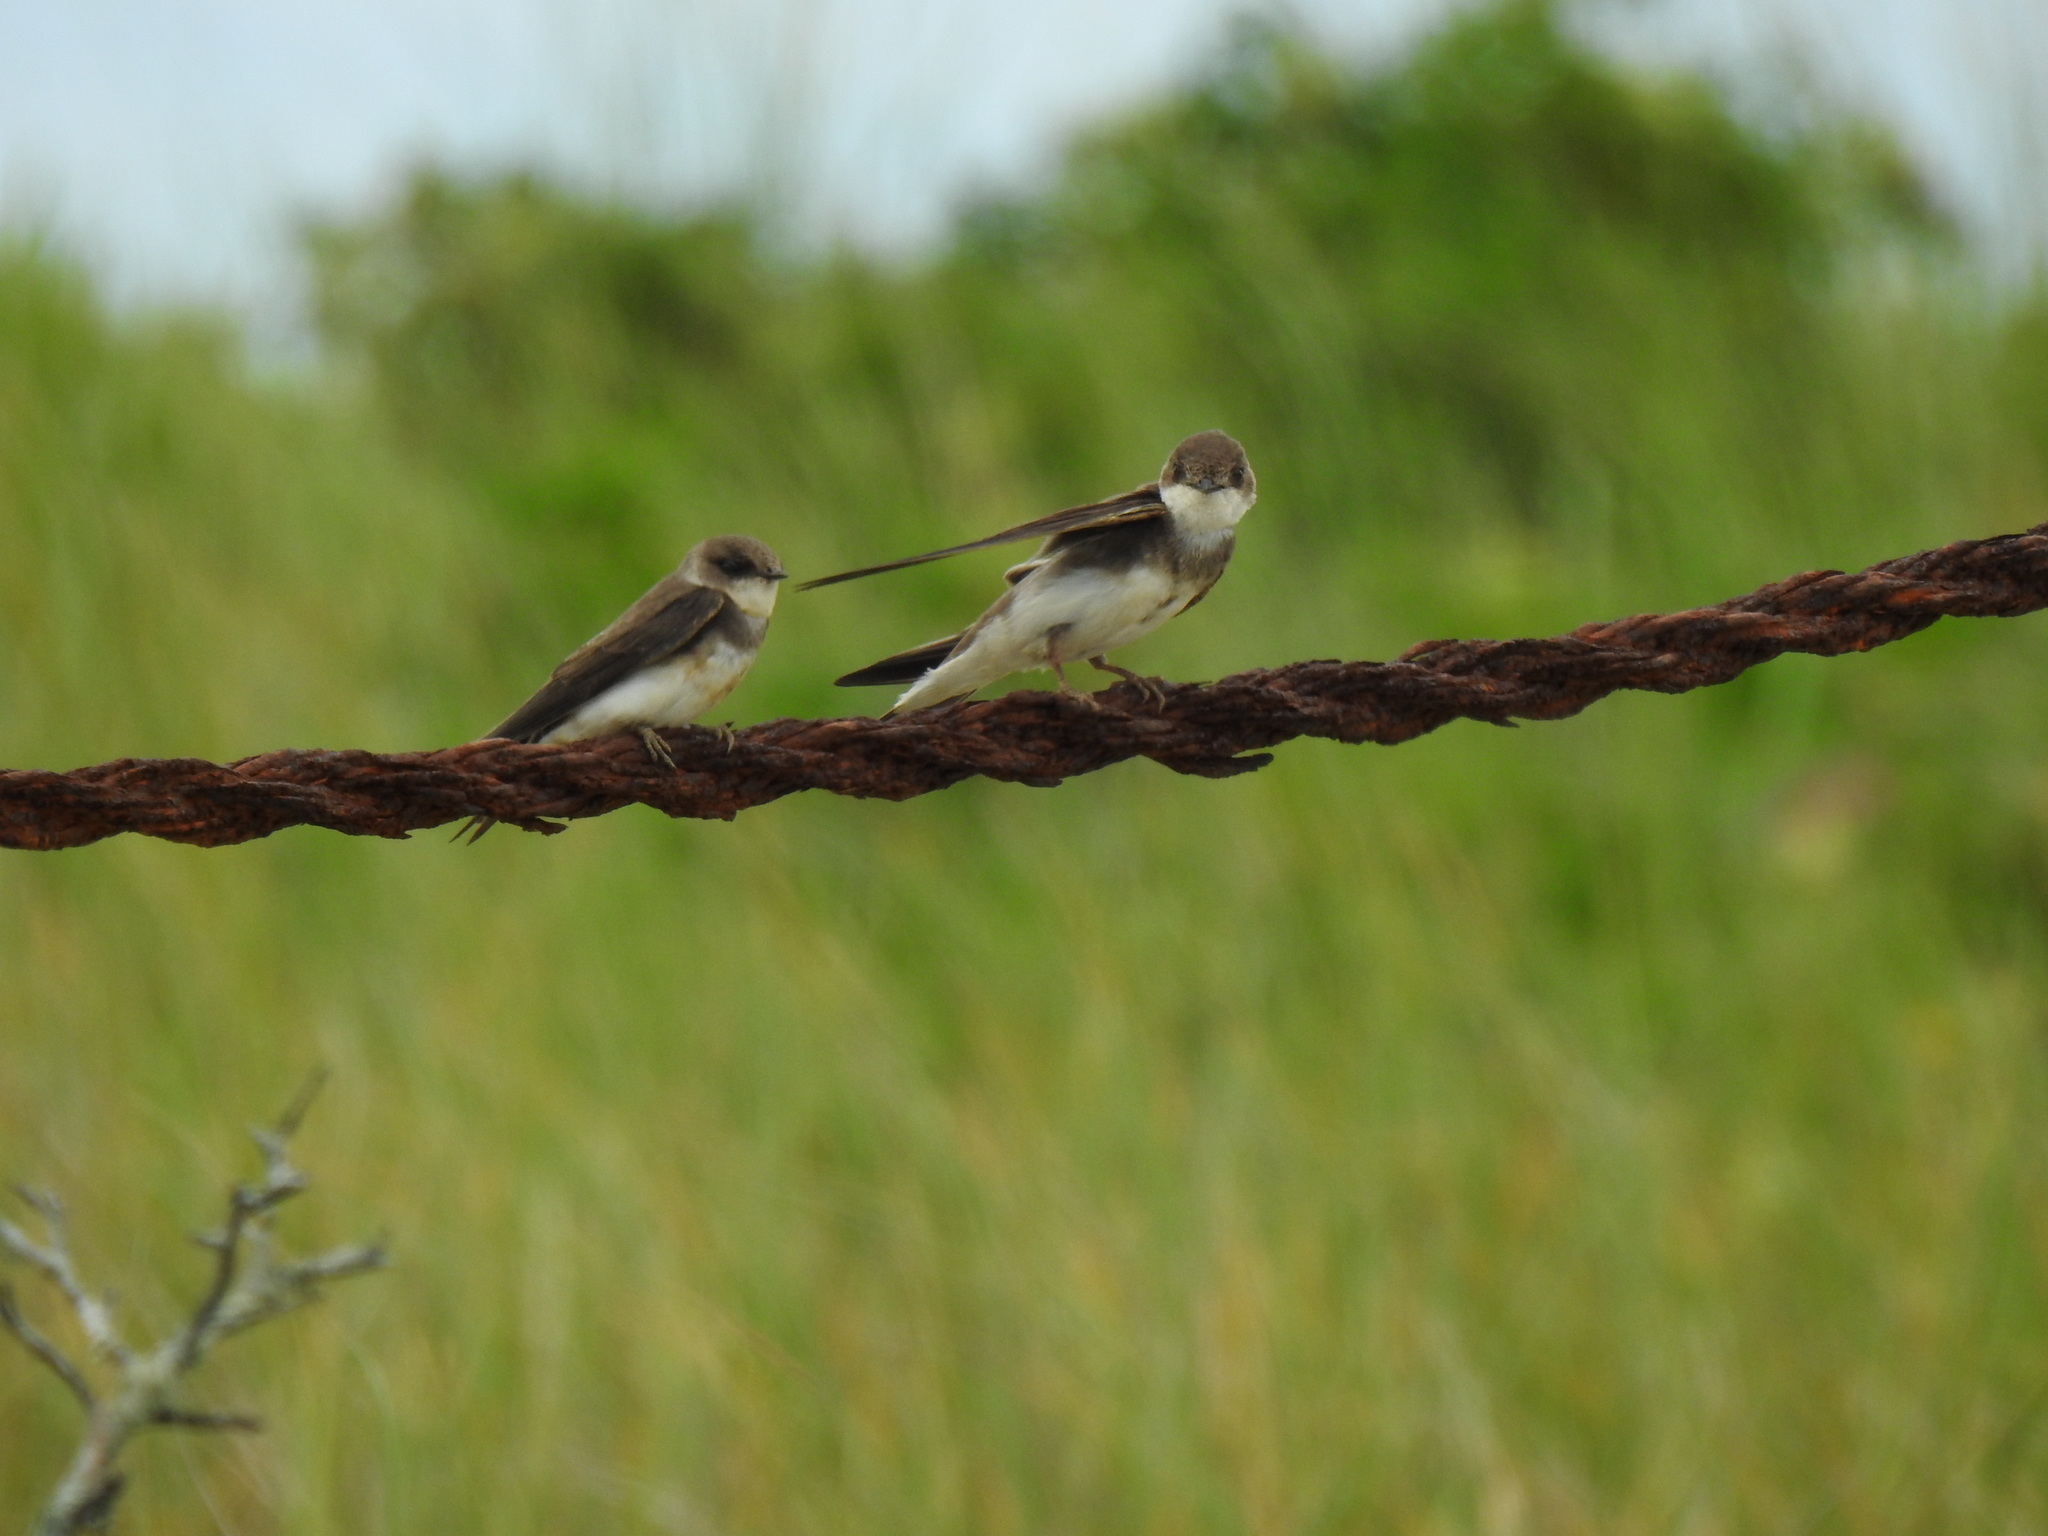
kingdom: Animalia
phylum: Chordata
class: Aves
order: Passeriformes
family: Hirundinidae
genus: Riparia
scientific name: Riparia riparia
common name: Sand martin
